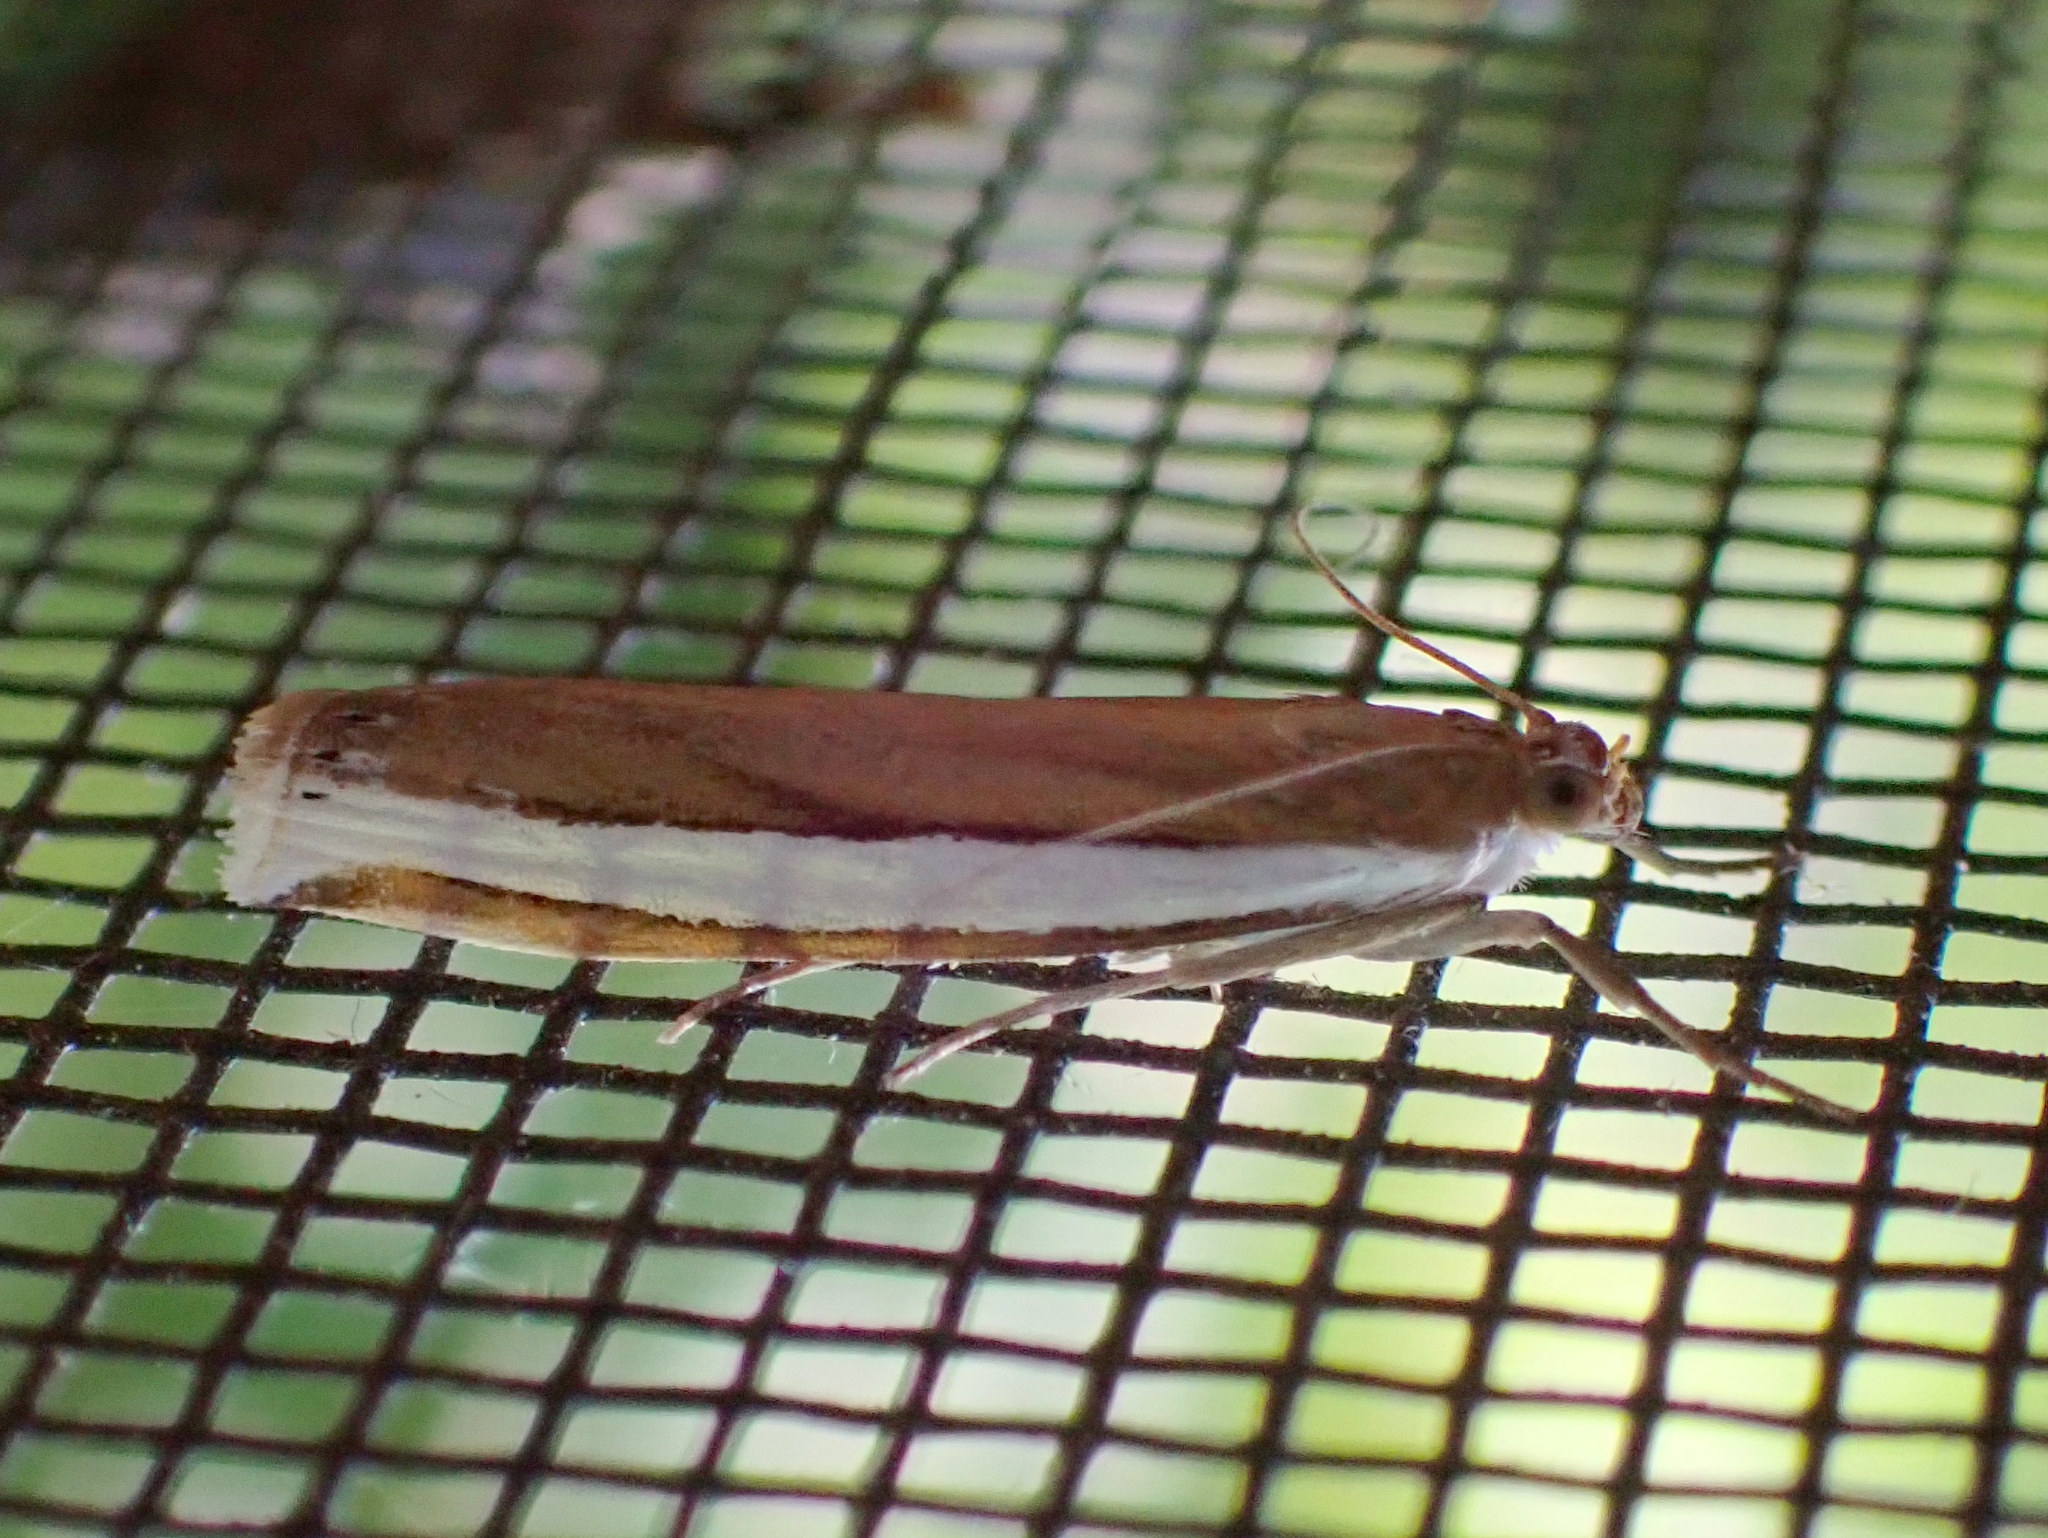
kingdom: Animalia
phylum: Arthropoda
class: Insecta
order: Lepidoptera
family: Crambidae
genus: Crambus
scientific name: Crambus unistriatellus
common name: Wide-stripe grass-veneer moth
